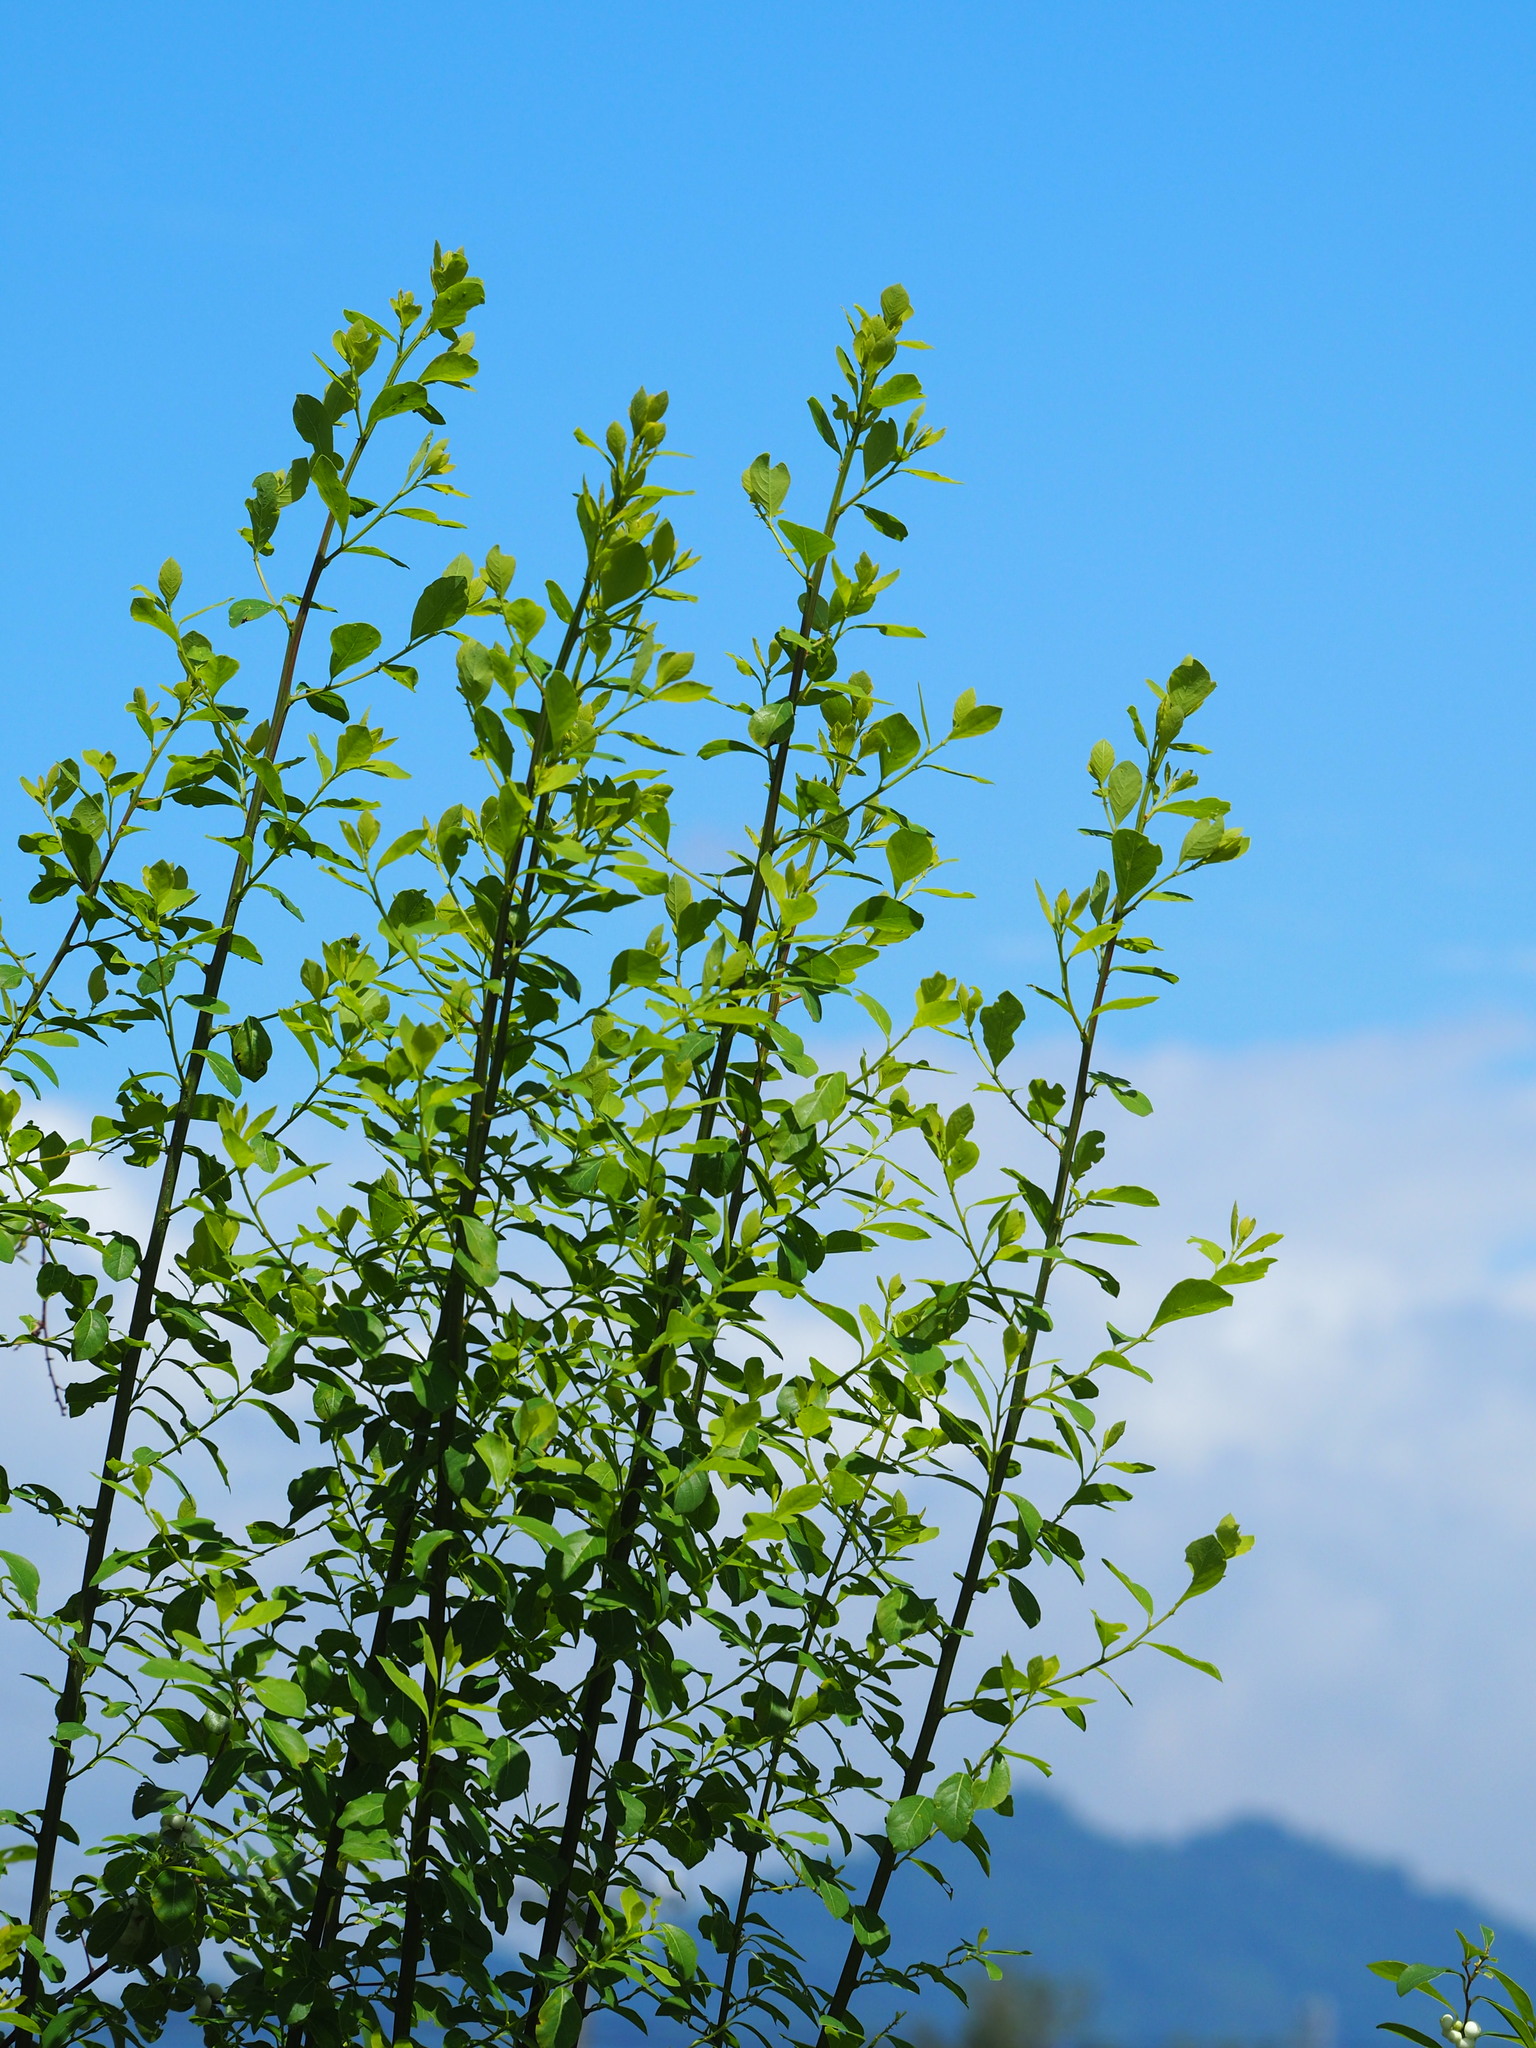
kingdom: Plantae
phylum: Tracheophyta
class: Magnoliopsida
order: Malpighiales
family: Phyllanthaceae
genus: Flueggea
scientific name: Flueggea virosa
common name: Common bushweed
